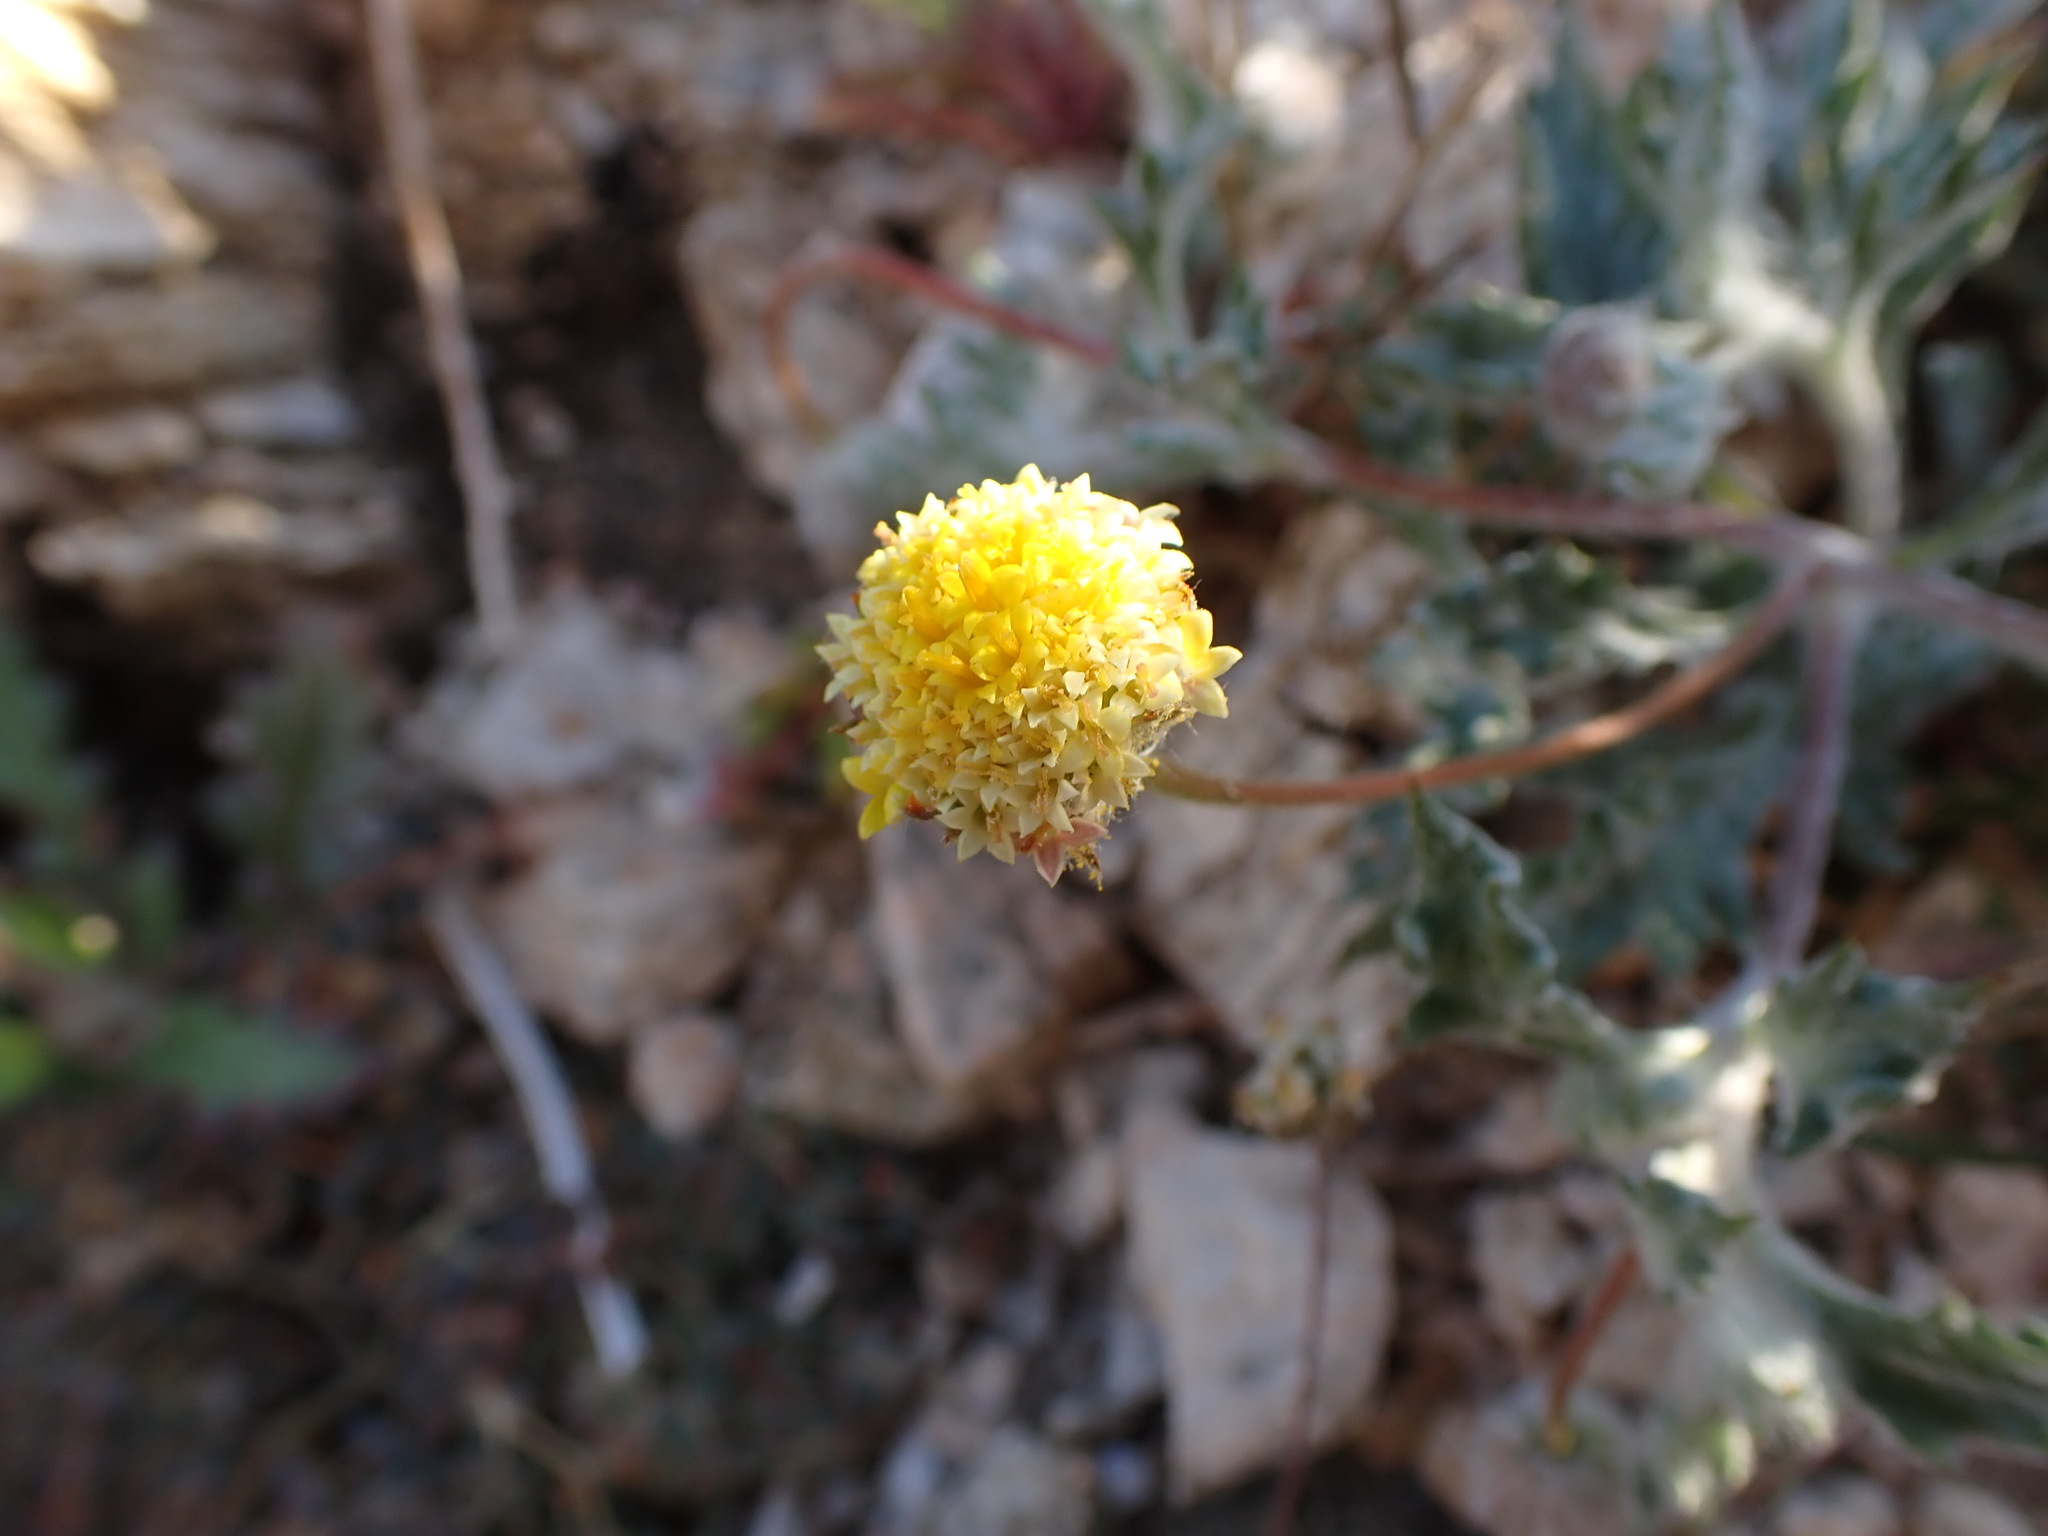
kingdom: Plantae
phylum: Tracheophyta
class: Magnoliopsida
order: Asterales
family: Asteraceae
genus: Trichoptilium
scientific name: Trichoptilium incisum
